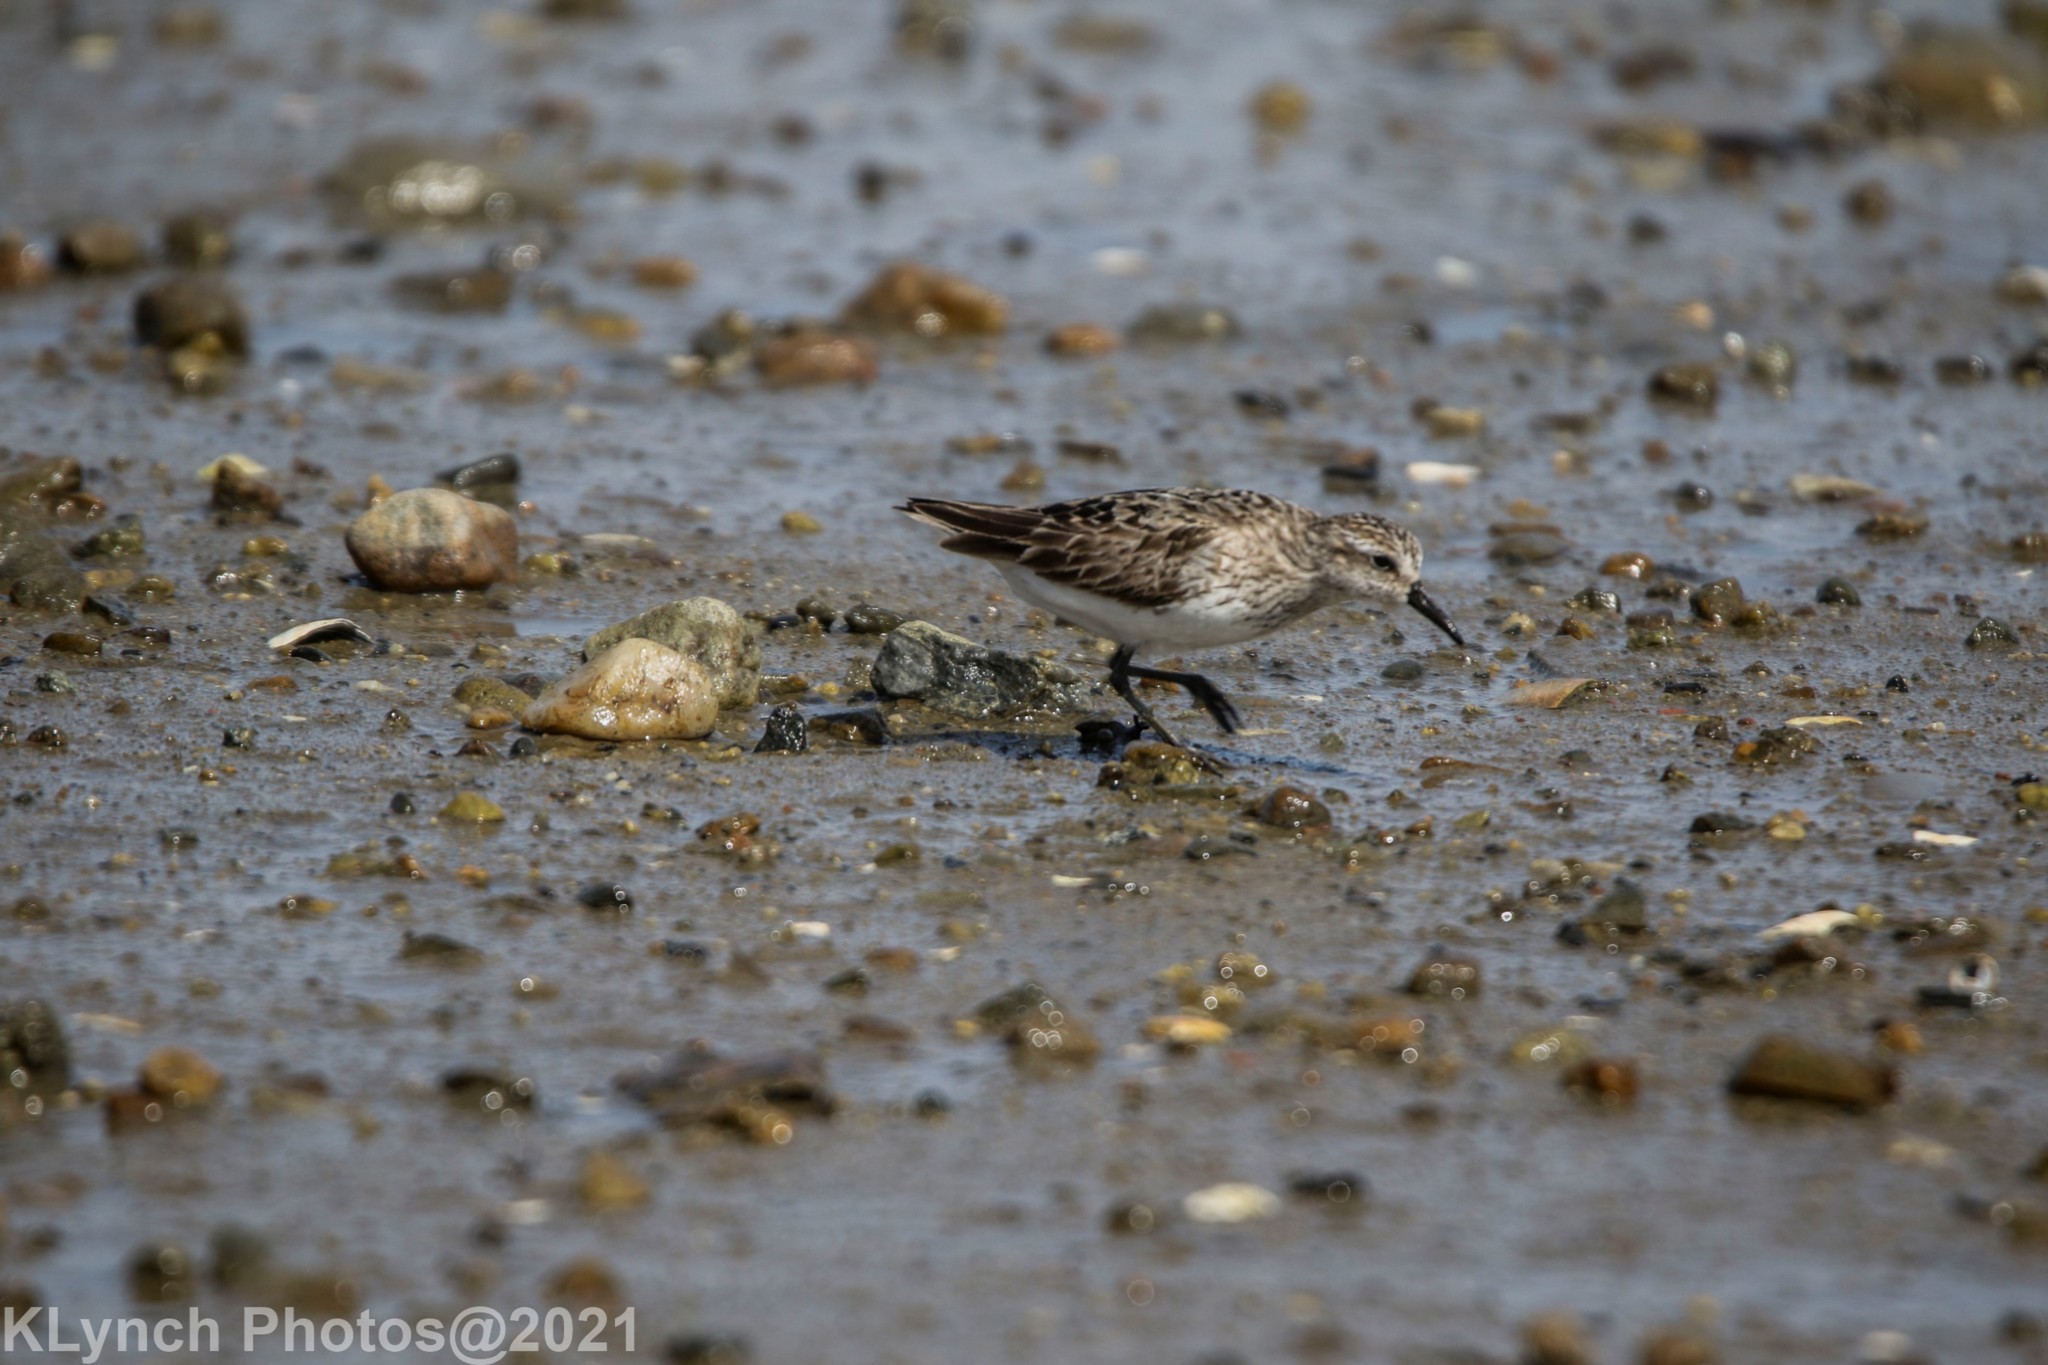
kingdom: Animalia
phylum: Chordata
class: Aves
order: Charadriiformes
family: Scolopacidae
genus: Calidris
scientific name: Calidris pusilla
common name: Semipalmated sandpiper
